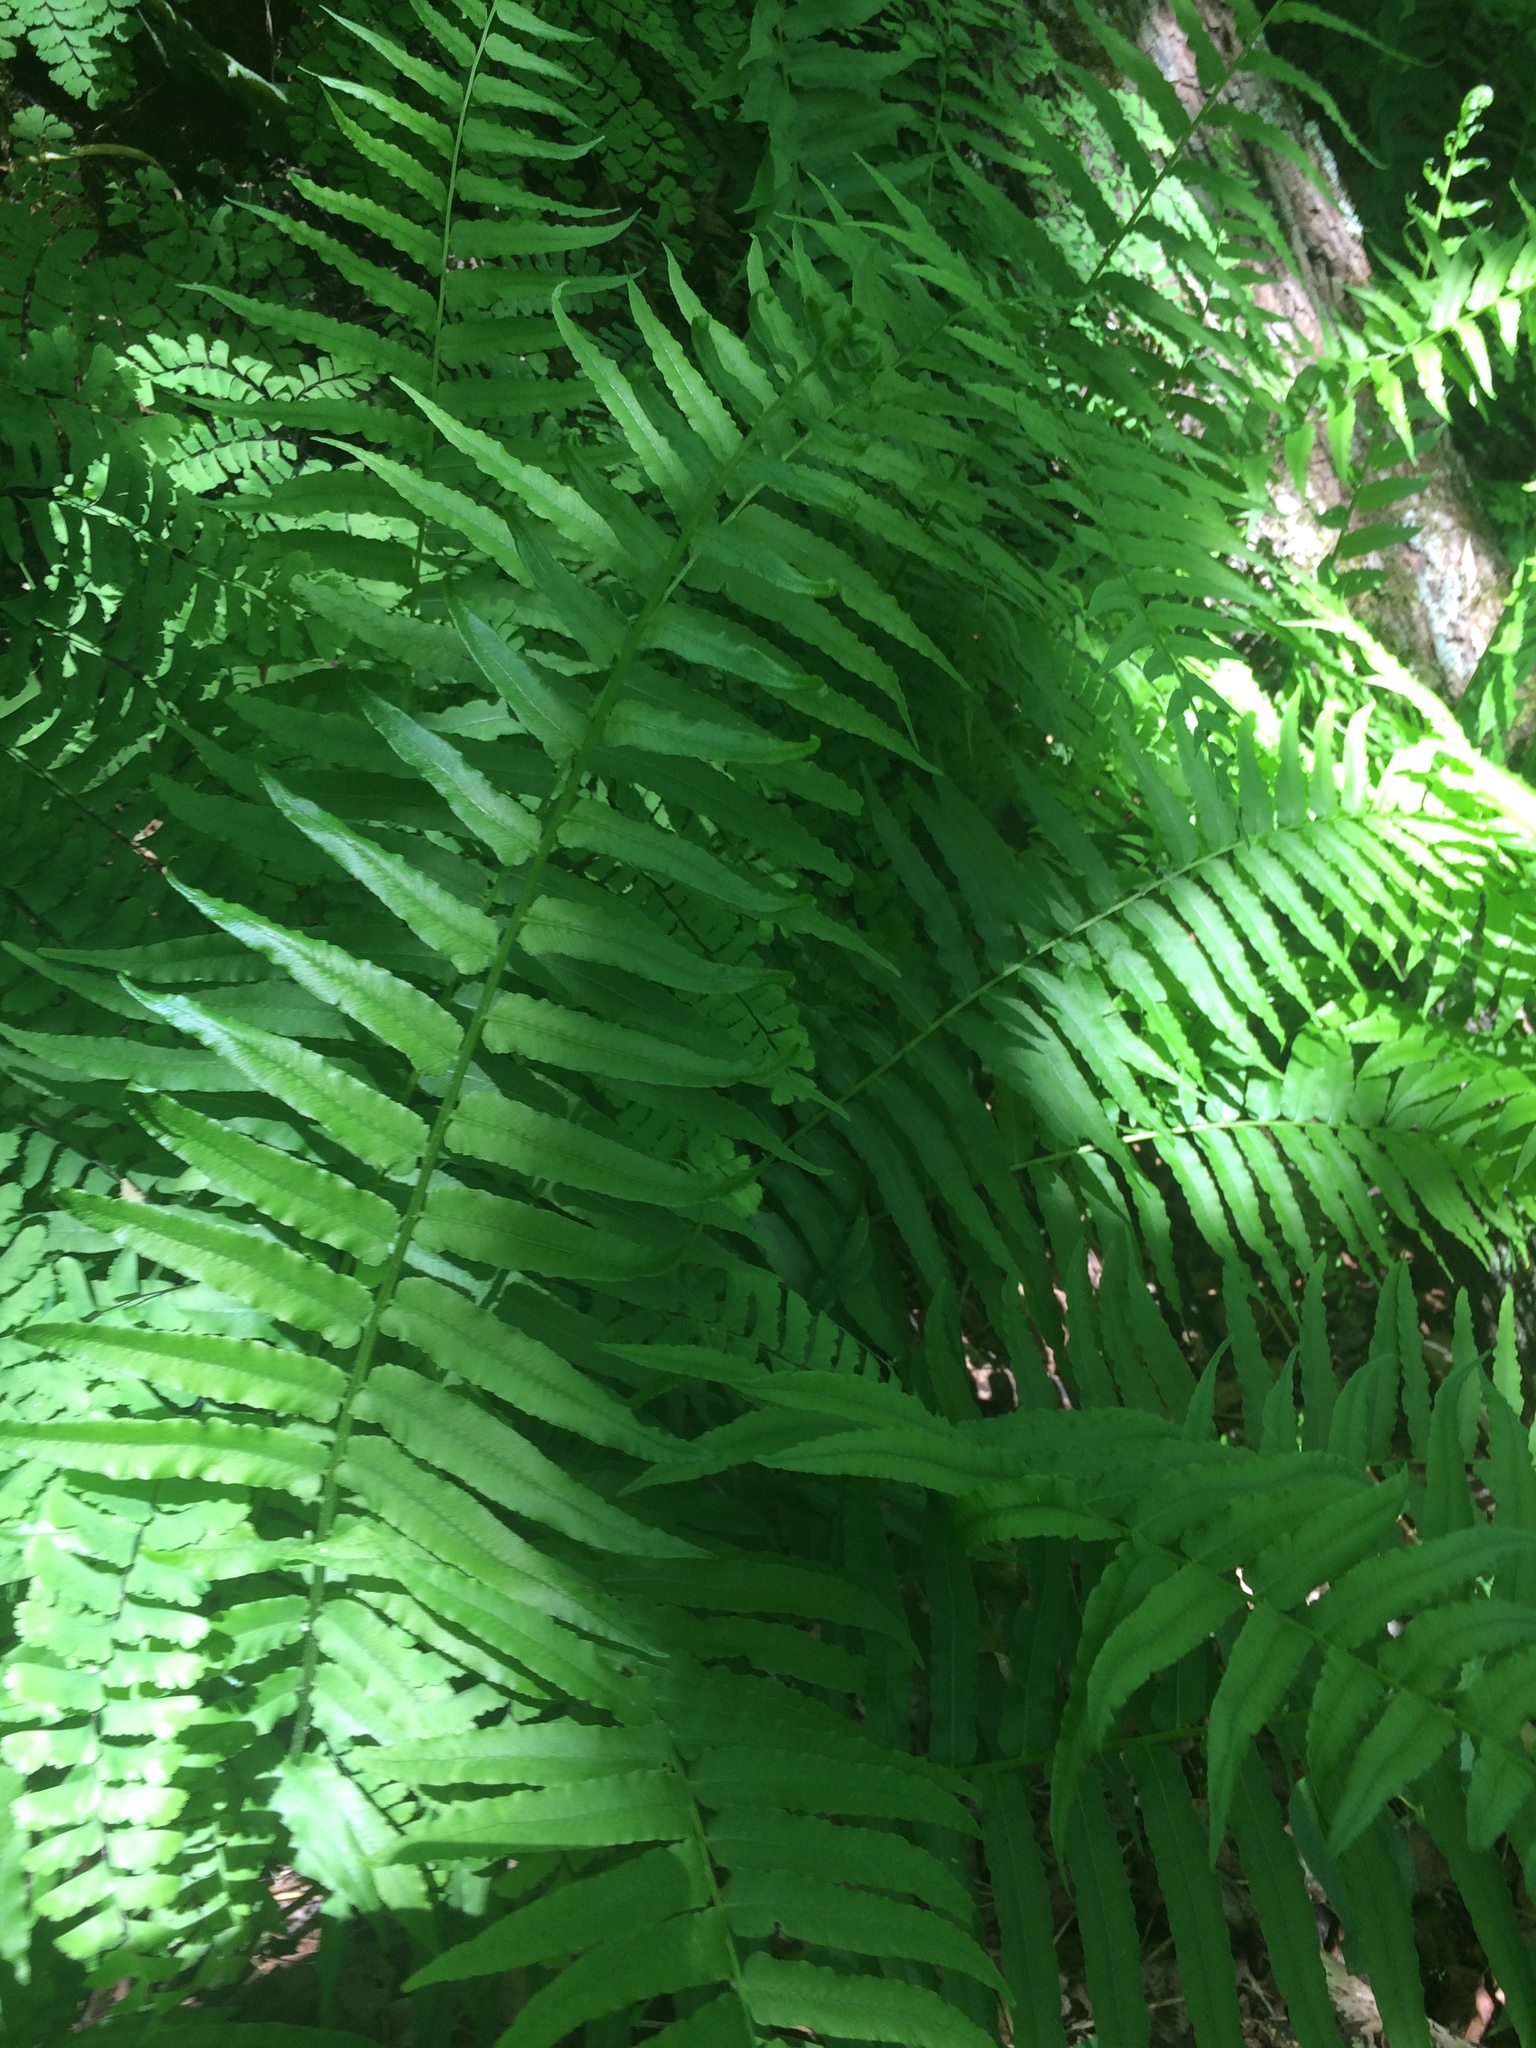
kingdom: Plantae
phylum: Tracheophyta
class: Polypodiopsida
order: Polypodiales
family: Diplaziopsidaceae
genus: Homalosorus
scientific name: Homalosorus pycnocarpos
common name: Glade fern
